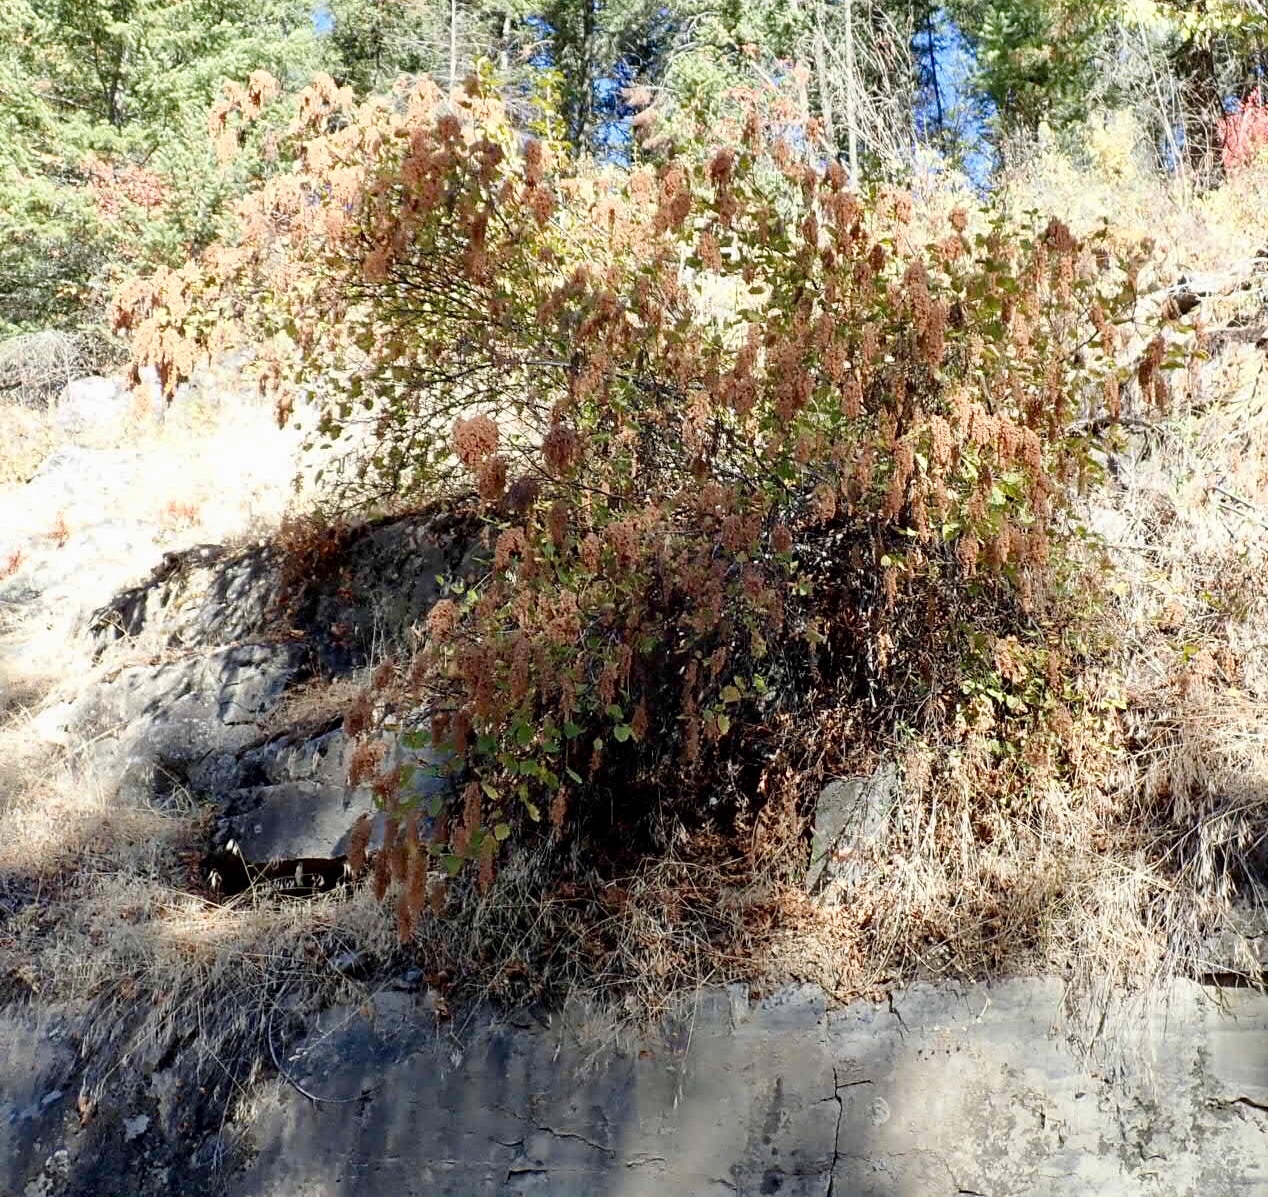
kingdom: Plantae
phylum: Tracheophyta
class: Magnoliopsida
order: Rosales
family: Rosaceae
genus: Holodiscus
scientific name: Holodiscus discolor
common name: Oceanspray
